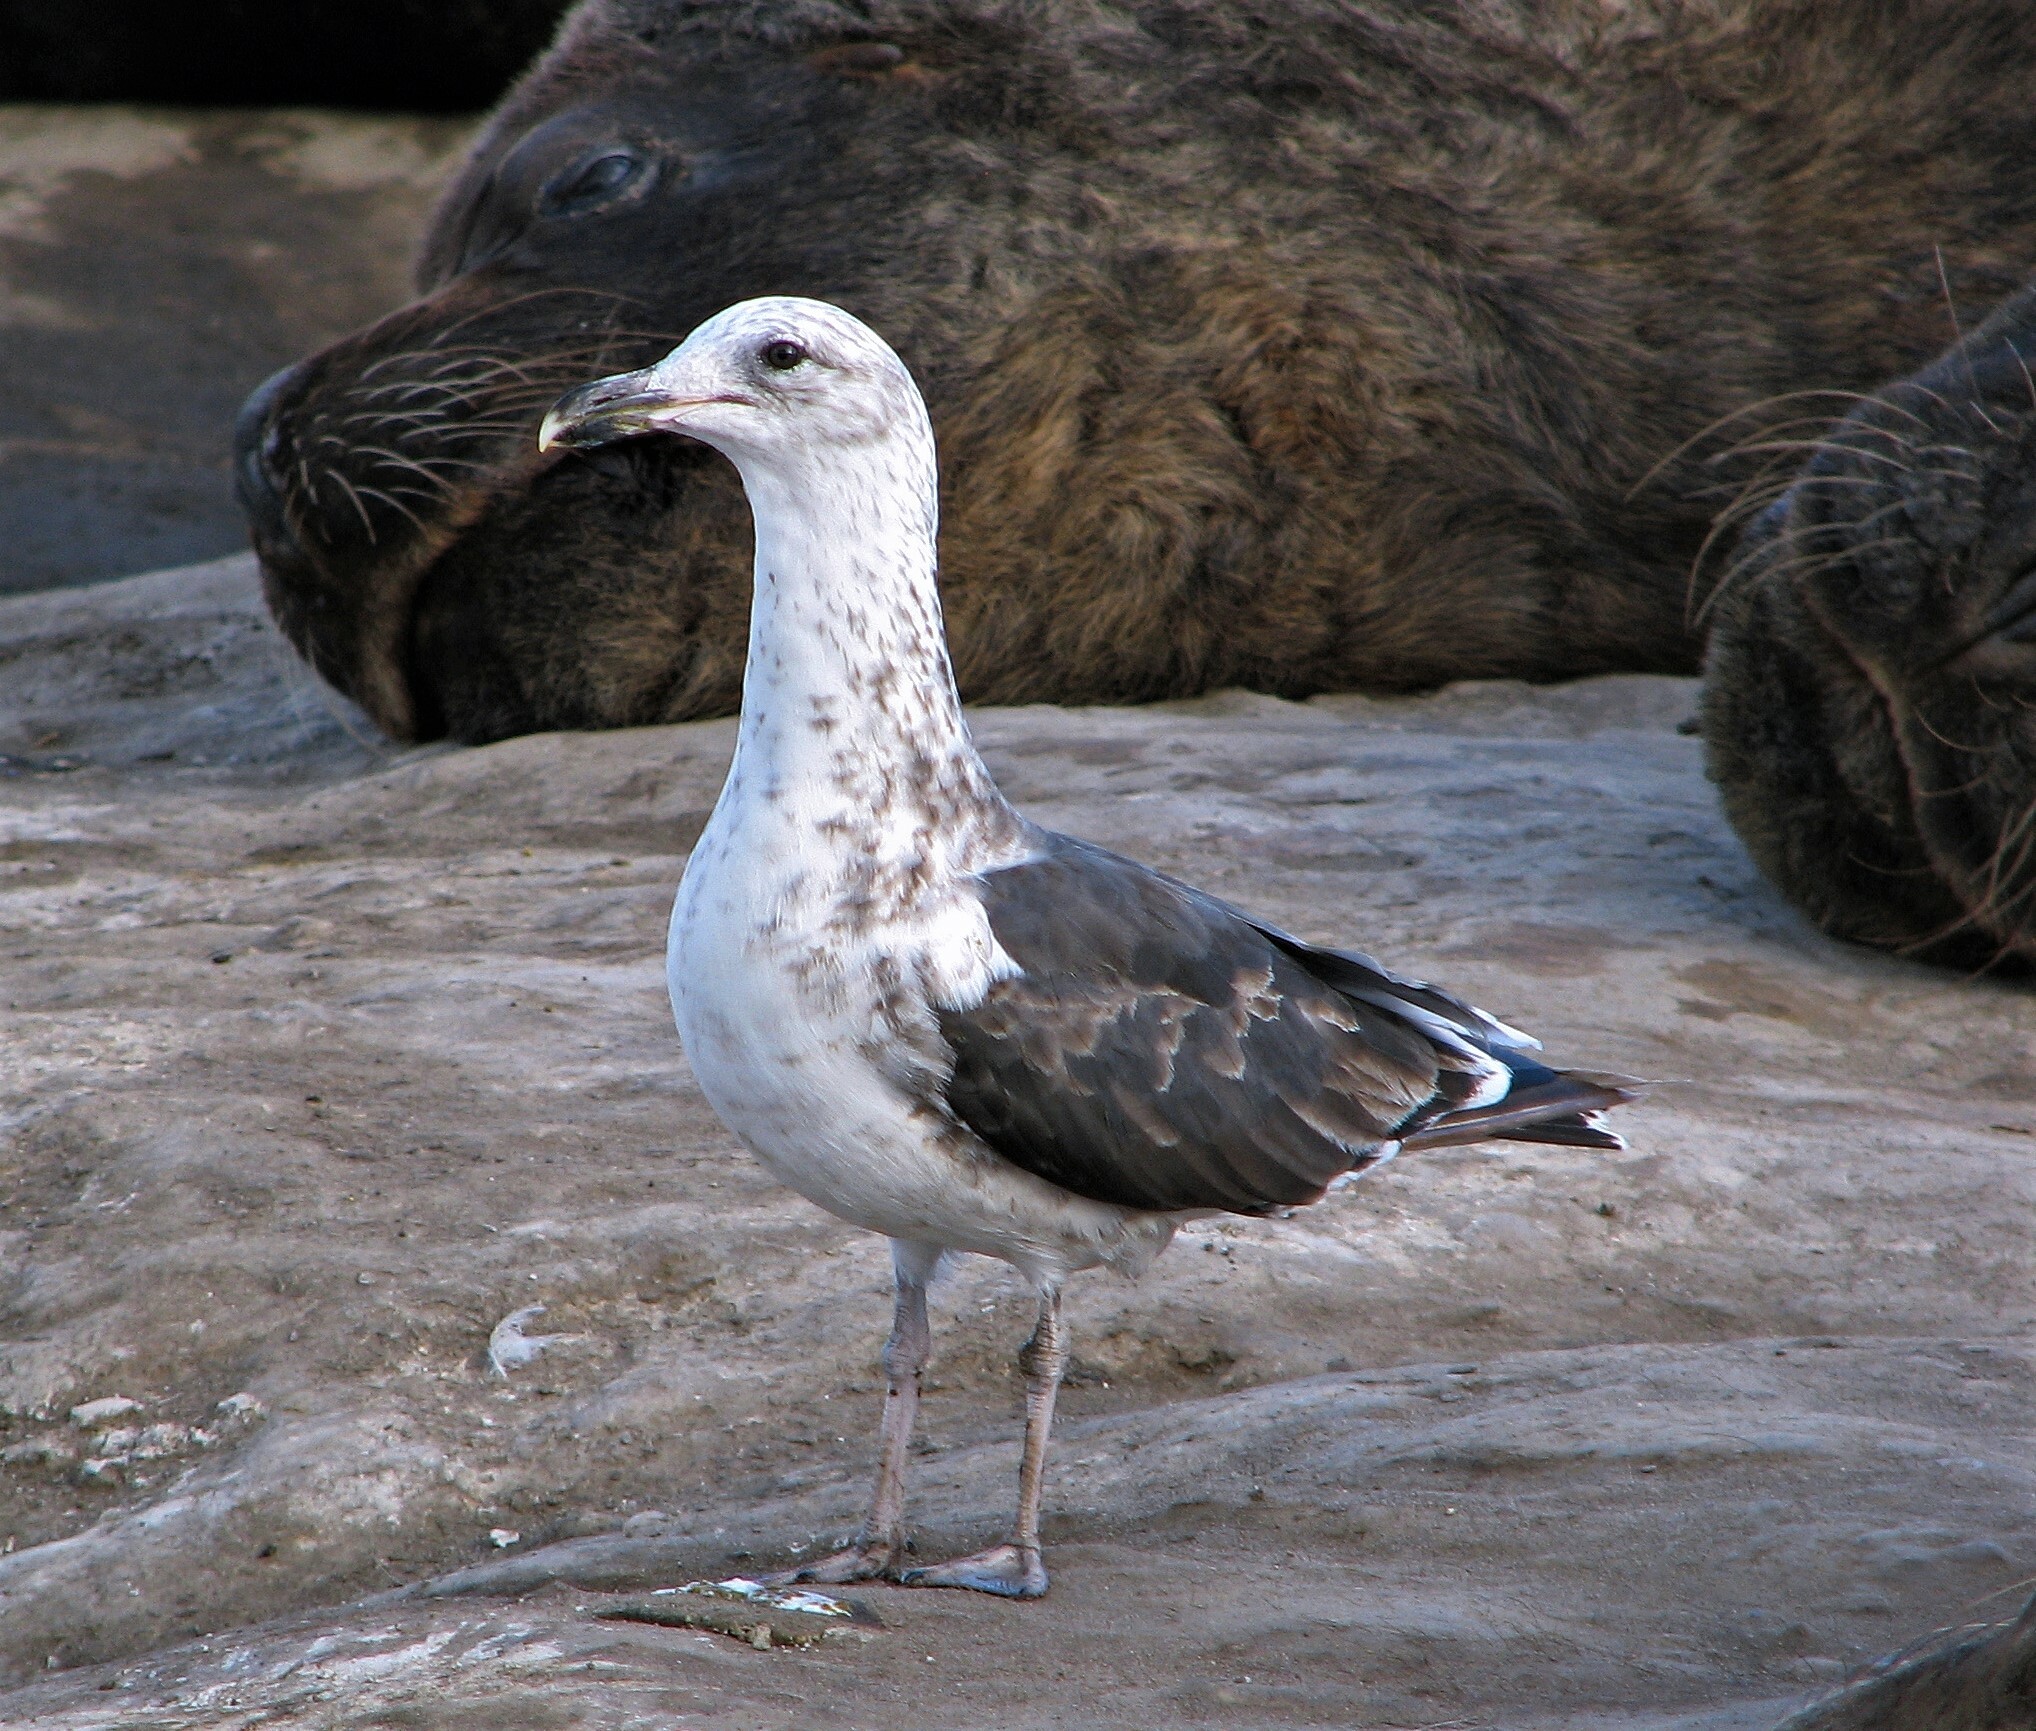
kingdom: Animalia
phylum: Chordata
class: Aves
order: Charadriiformes
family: Laridae
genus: Larus
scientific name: Larus dominicanus
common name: Kelp gull
